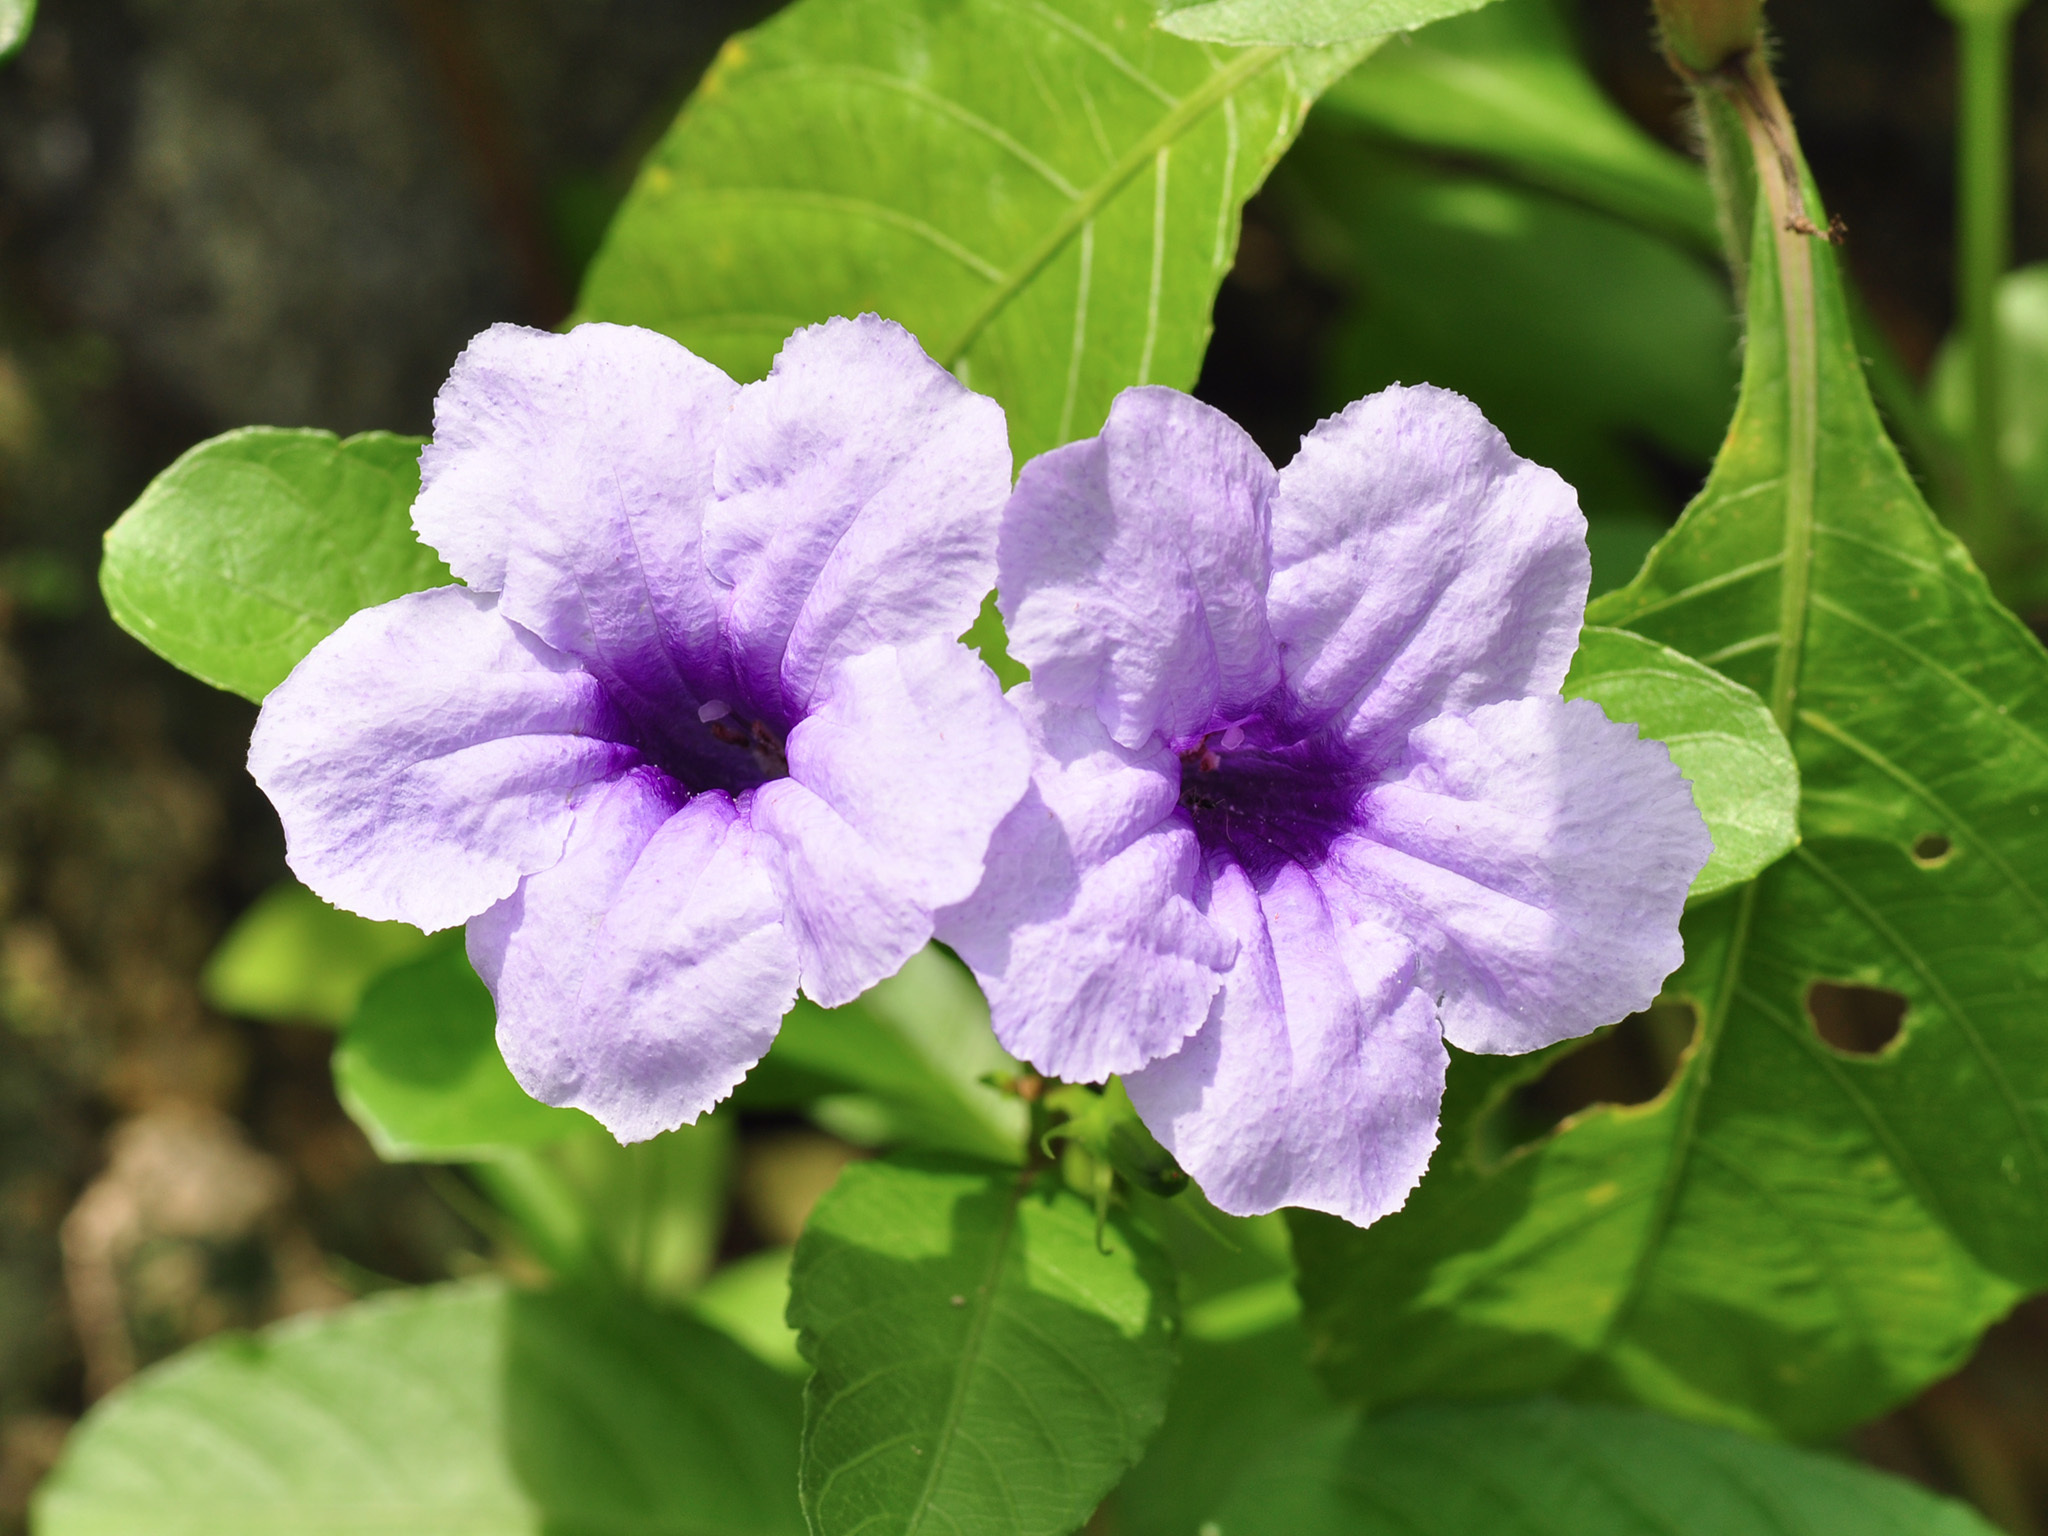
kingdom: Plantae
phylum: Tracheophyta
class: Magnoliopsida
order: Lamiales
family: Acanthaceae
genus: Ruellia
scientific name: Ruellia tuberosa
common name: Devil's bit
